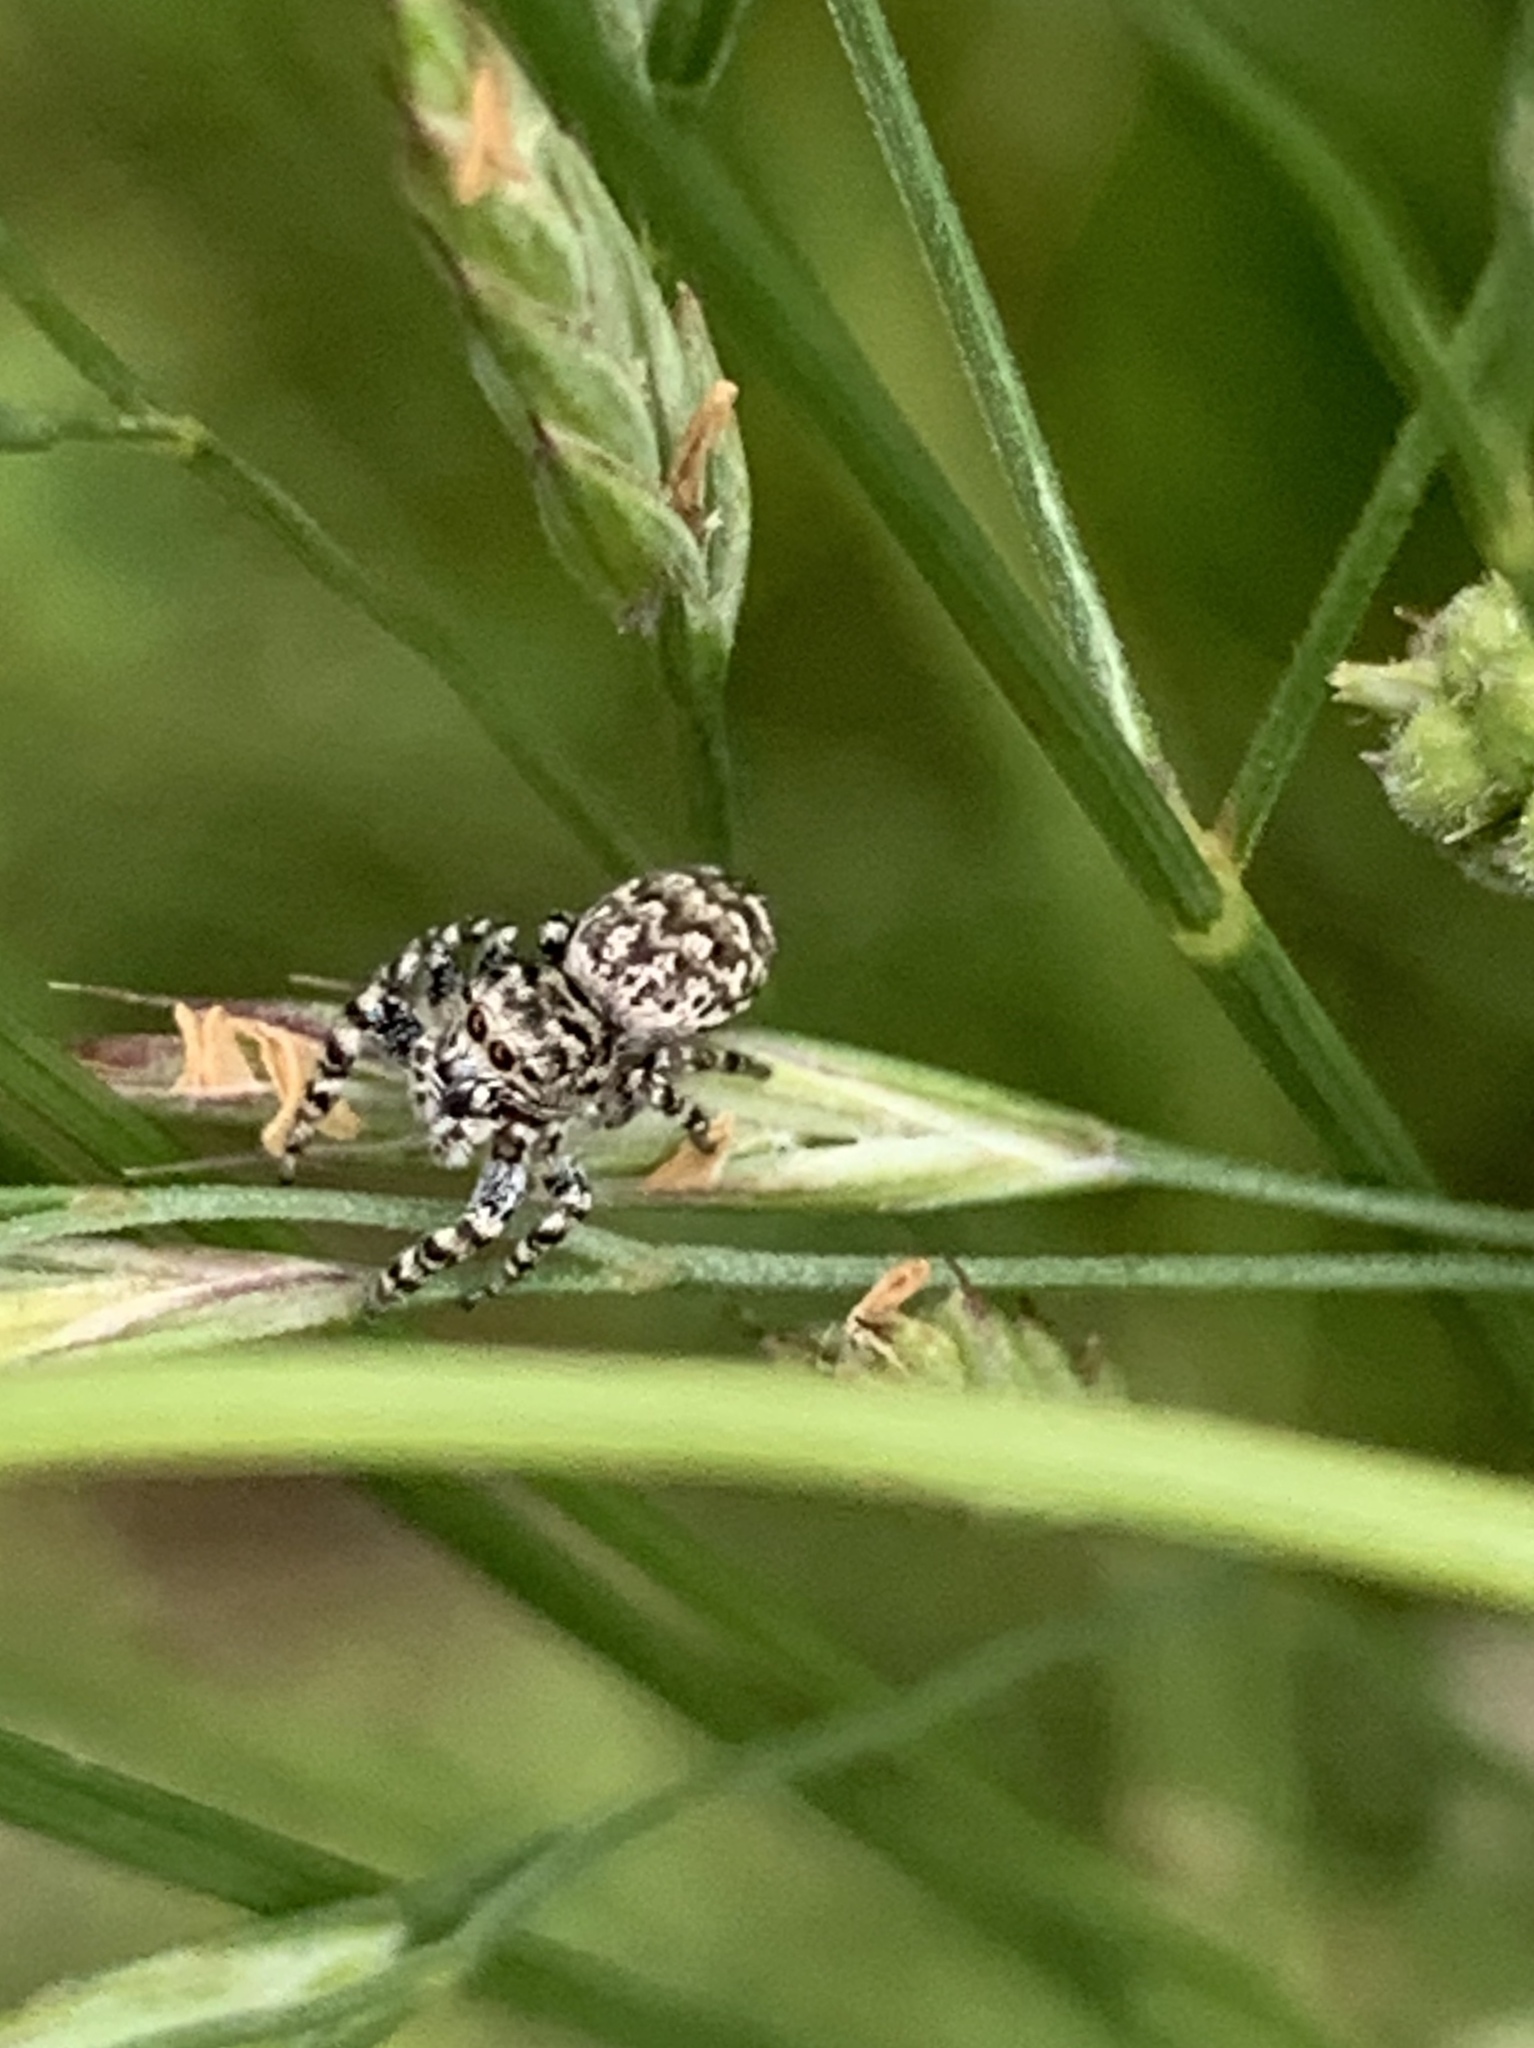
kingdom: Animalia
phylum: Arthropoda
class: Arachnida
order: Araneae
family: Salticidae
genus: Pelegrina
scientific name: Pelegrina galathea
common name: Jumping spiders
